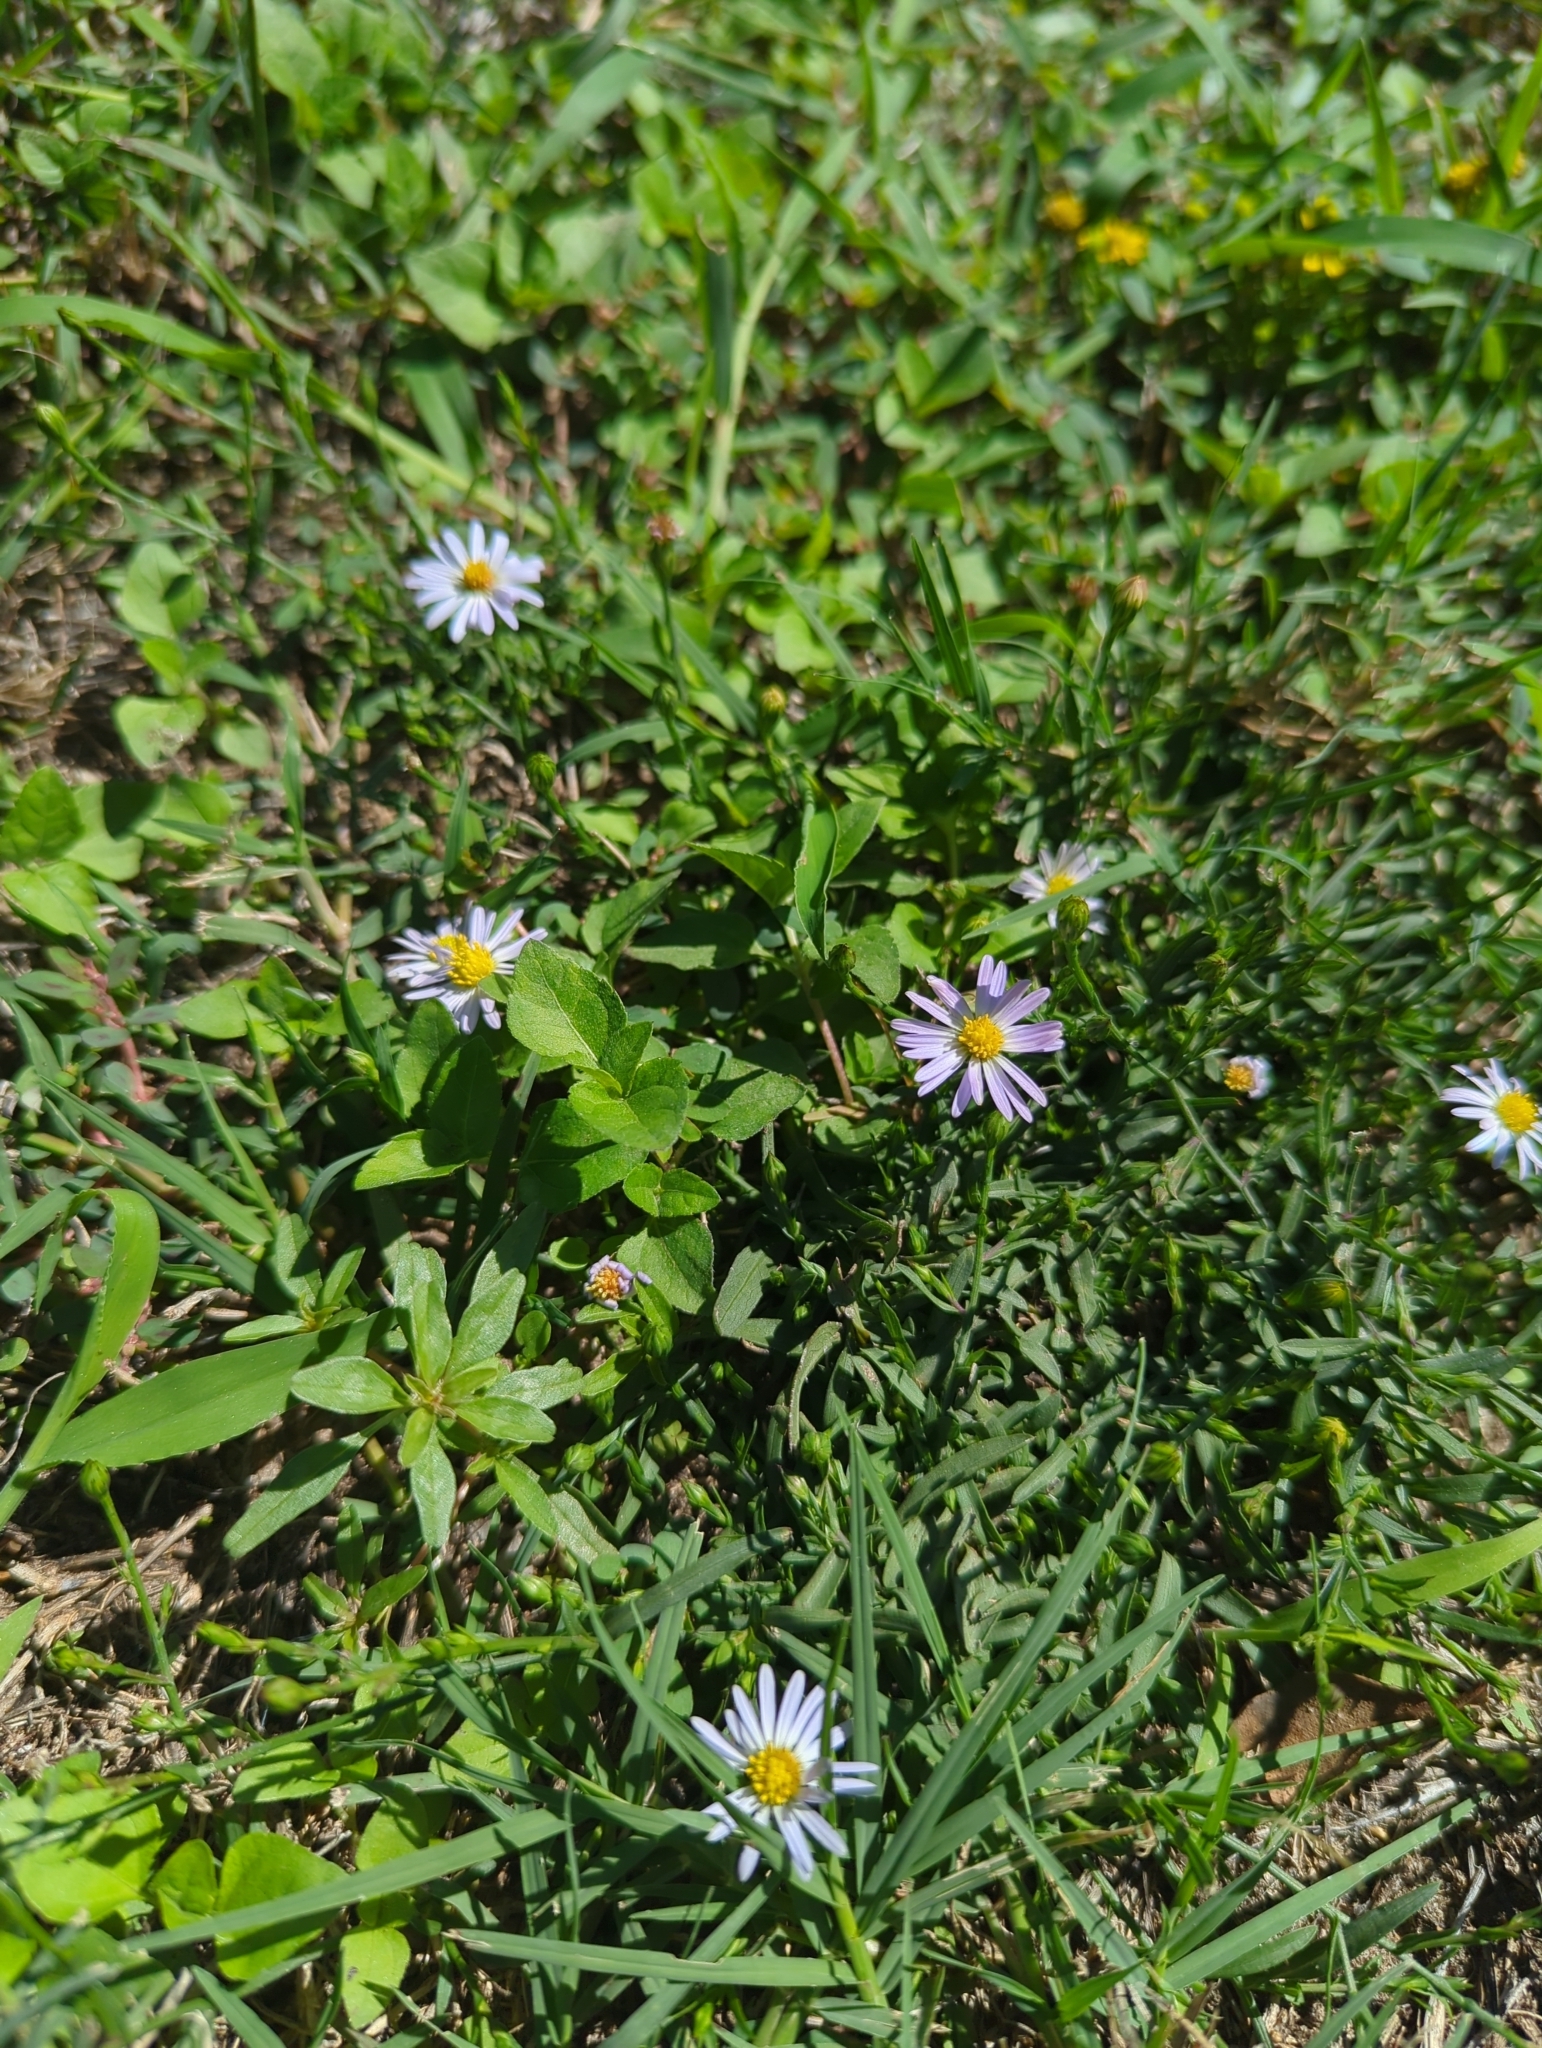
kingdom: Plantae
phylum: Tracheophyta
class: Magnoliopsida
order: Asterales
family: Asteraceae
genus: Symphyotrichum
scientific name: Symphyotrichum divaricatum
